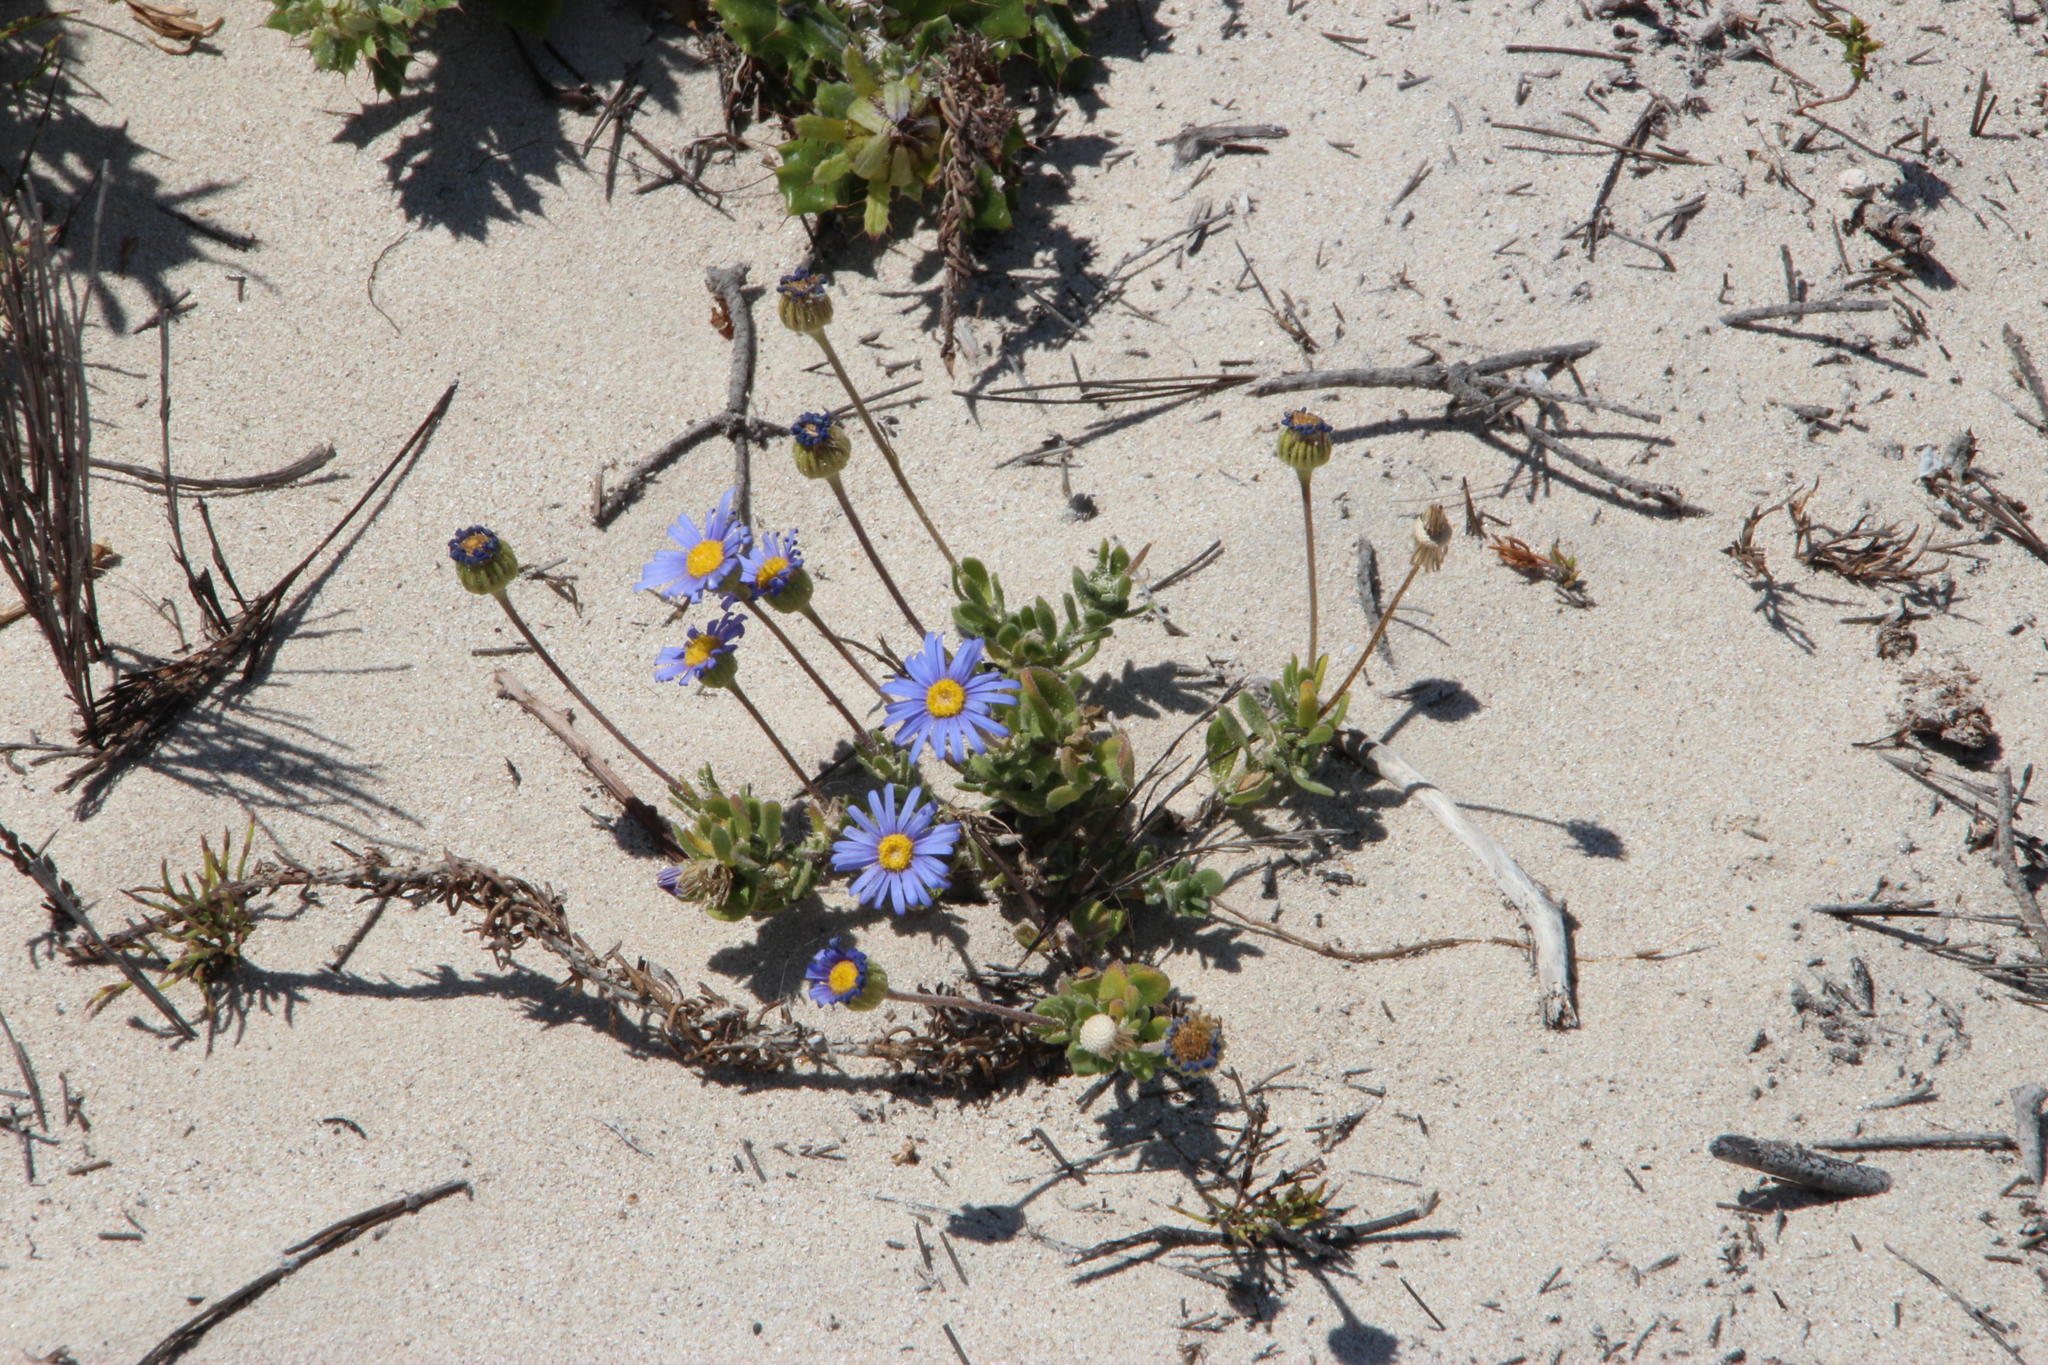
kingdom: Plantae
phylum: Tracheophyta
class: Magnoliopsida
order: Asterales
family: Asteraceae
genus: Felicia
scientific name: Felicia amoena
